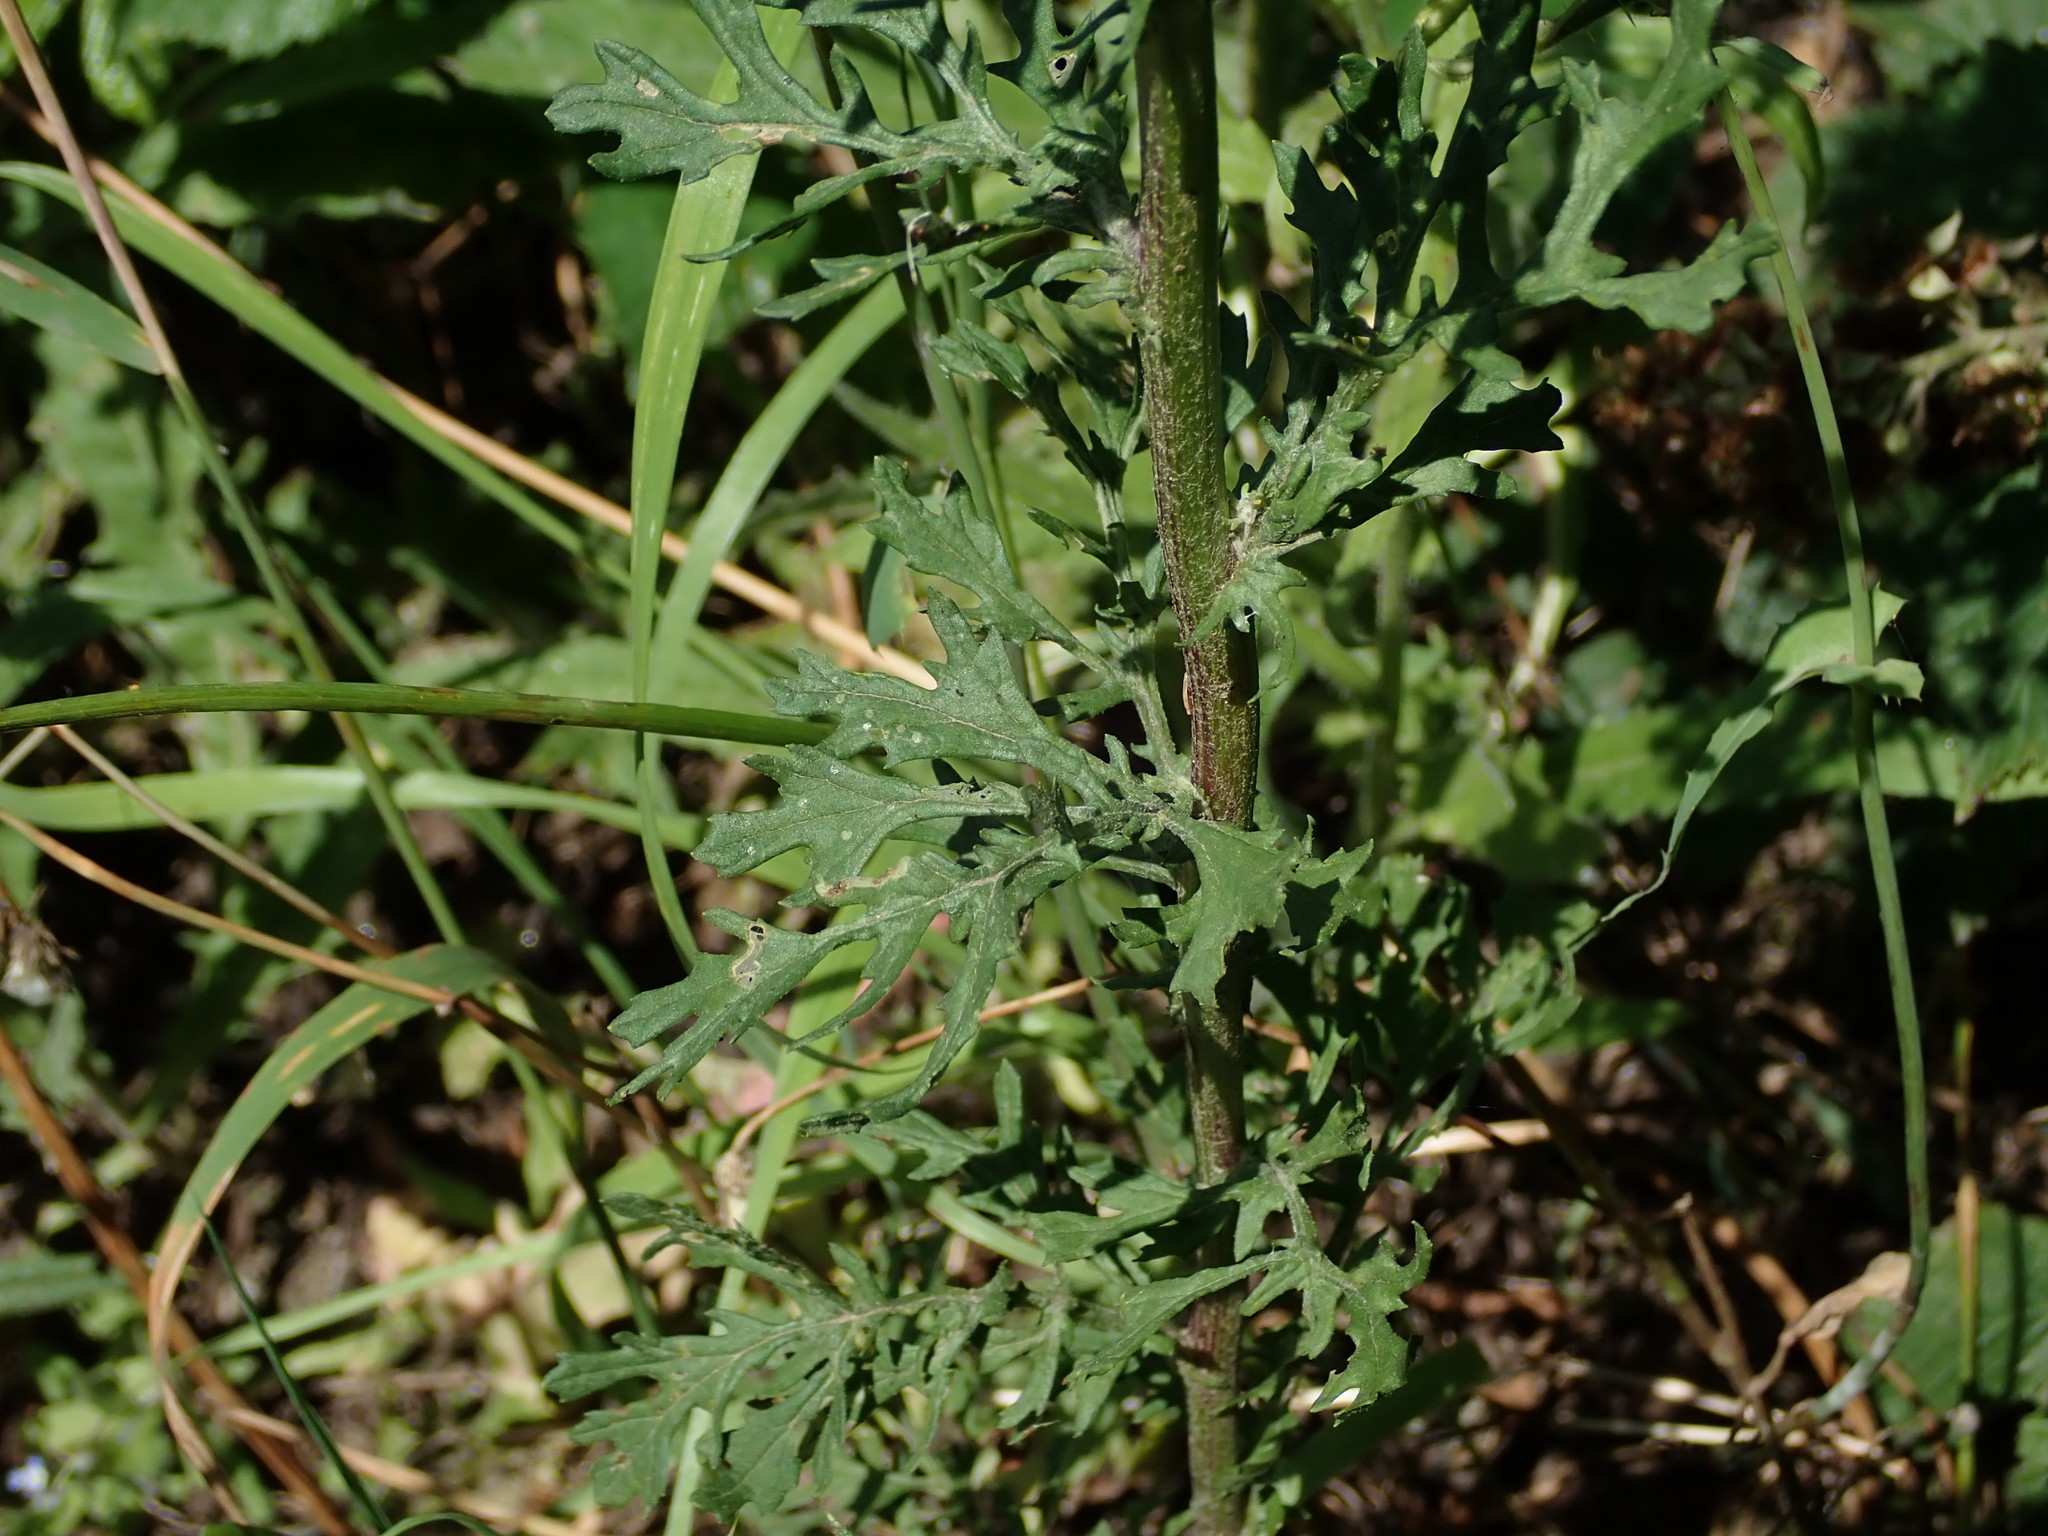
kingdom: Plantae
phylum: Tracheophyta
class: Magnoliopsida
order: Asterales
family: Asteraceae
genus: Jacobaea
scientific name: Jacobaea vulgaris
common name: Stinking willie
